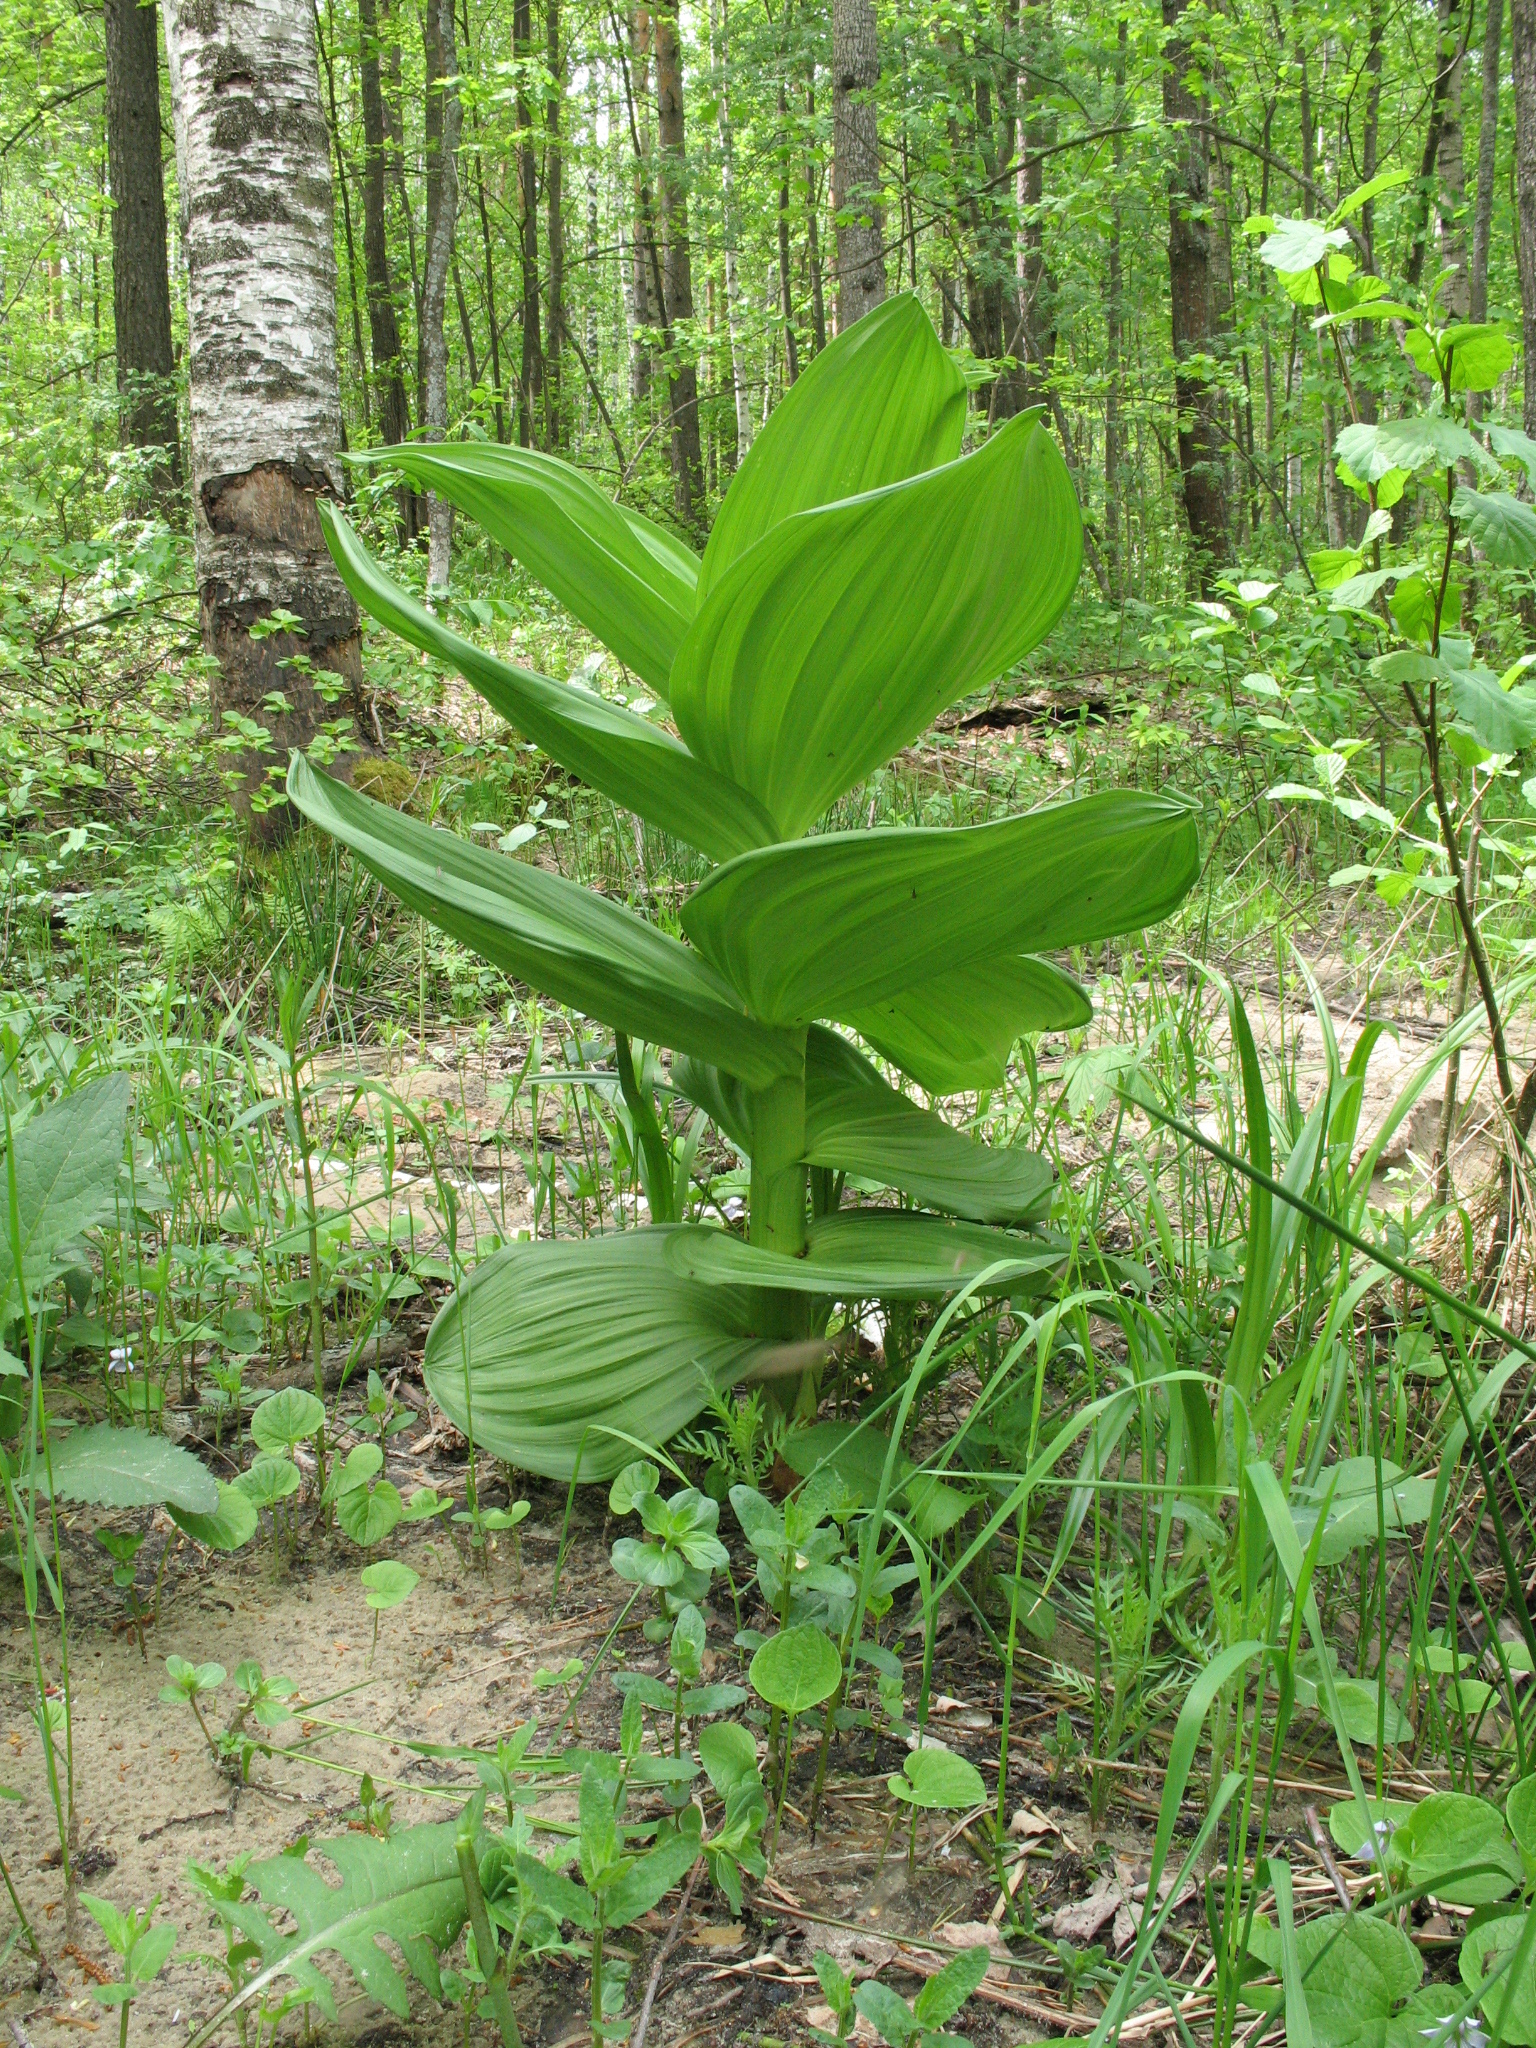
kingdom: Plantae
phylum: Tracheophyta
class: Liliopsida
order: Liliales
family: Melanthiaceae
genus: Veratrum
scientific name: Veratrum lobelianum
